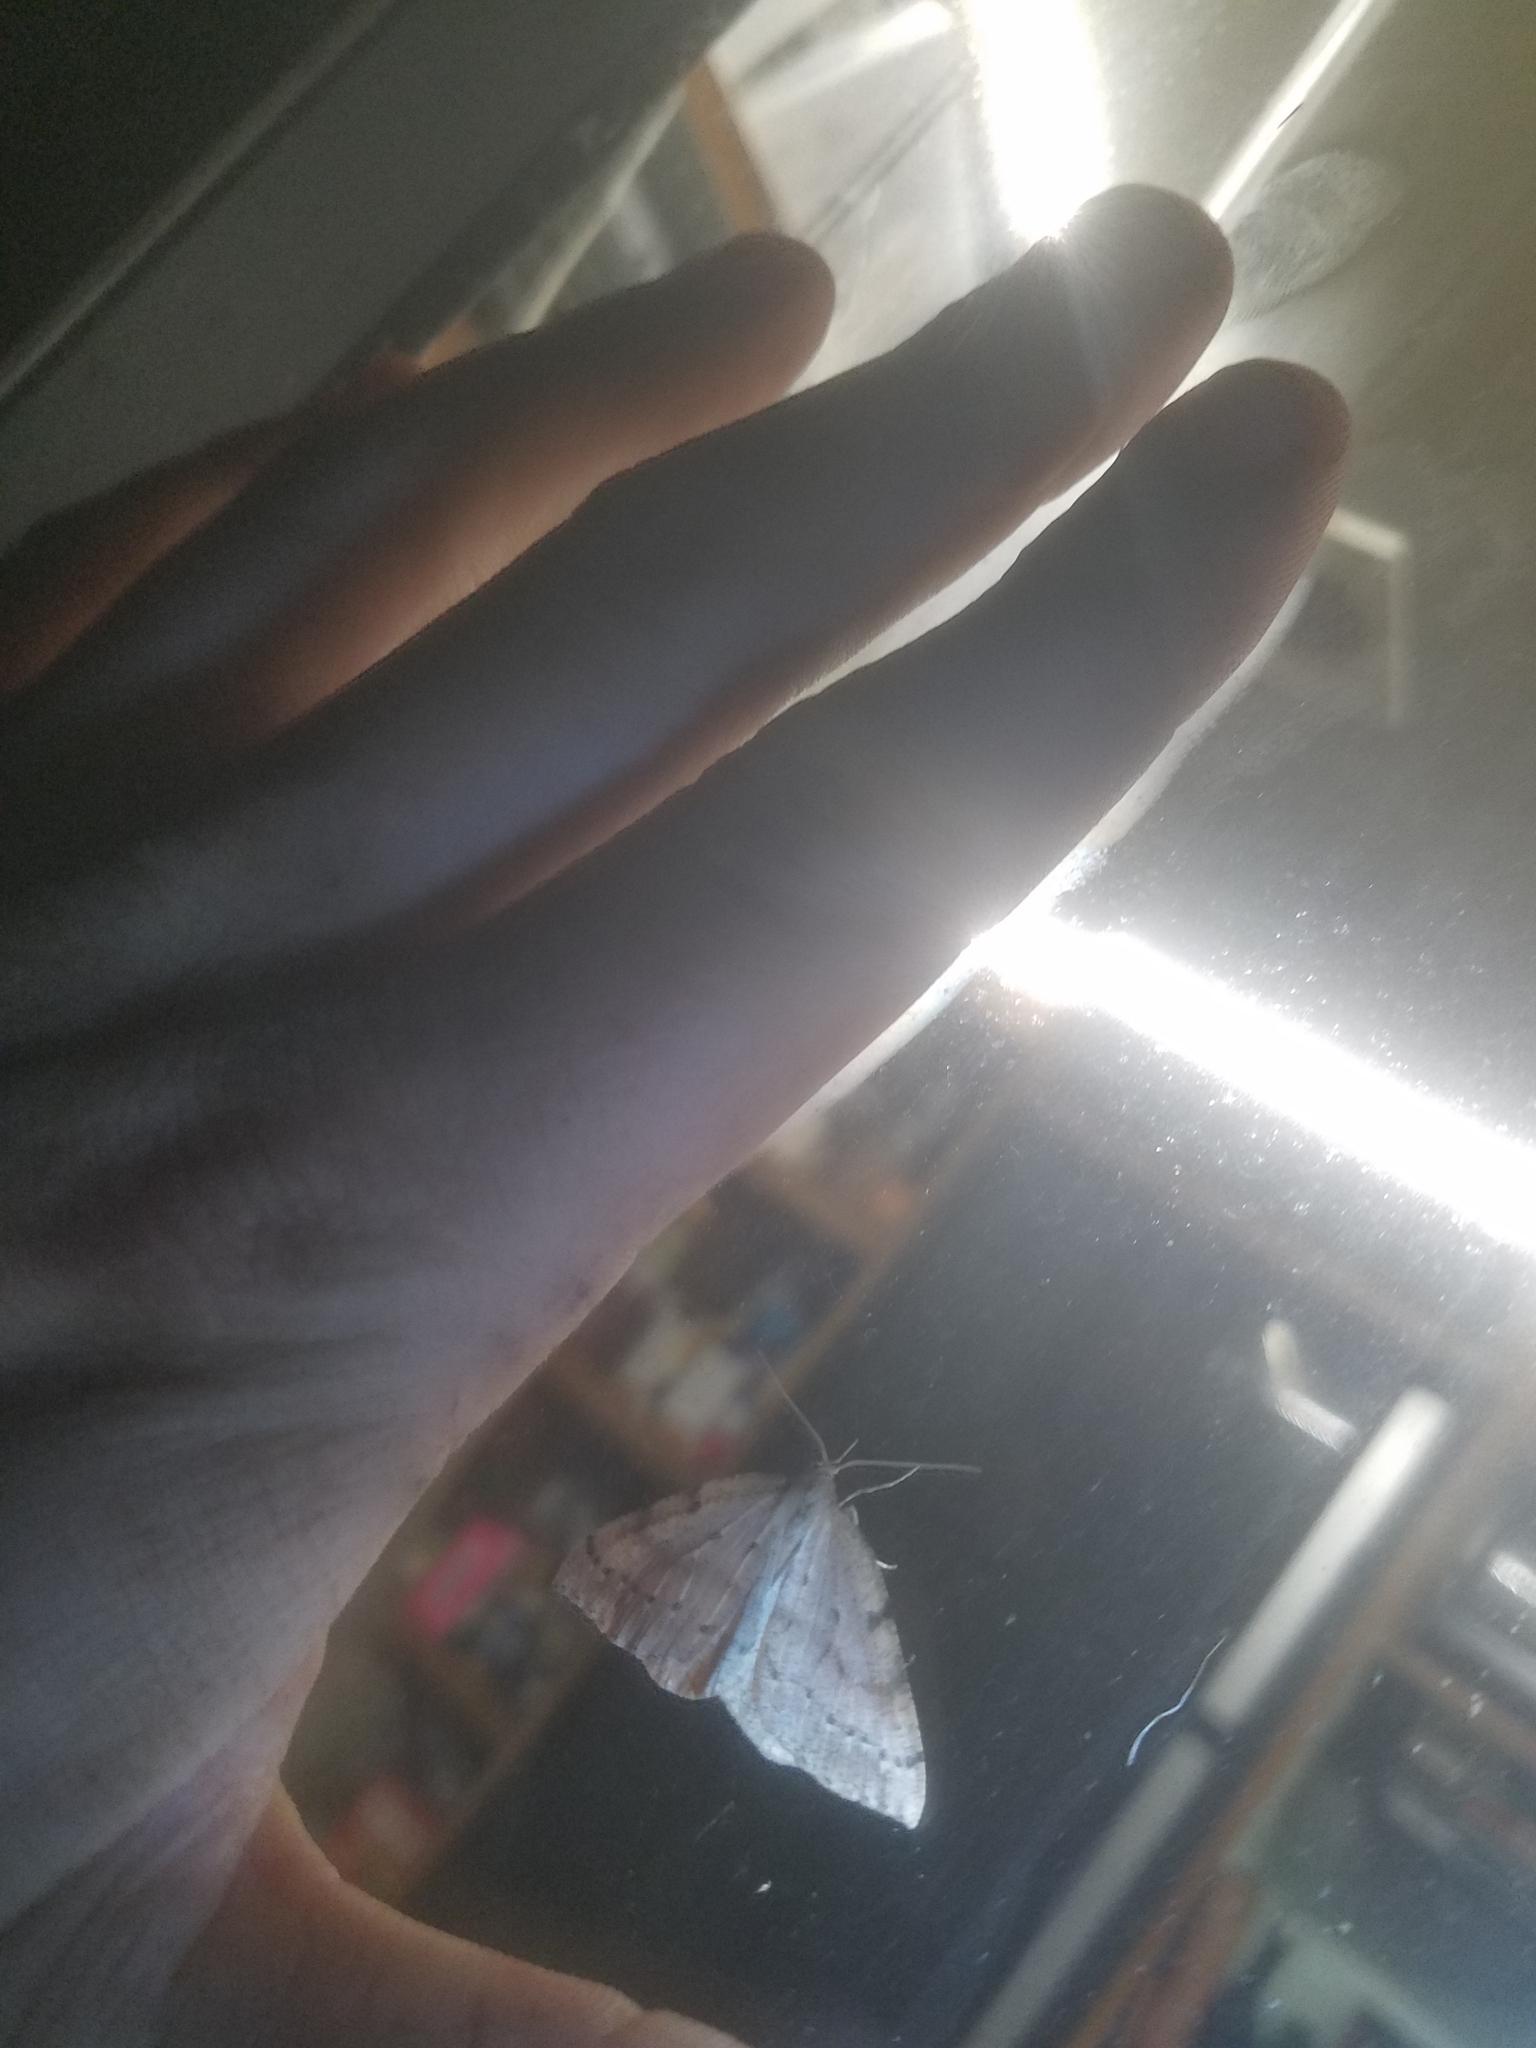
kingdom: Animalia
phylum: Arthropoda
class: Insecta
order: Lepidoptera
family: Geometridae
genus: Thallophaga
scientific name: Thallophaga hyperborea
